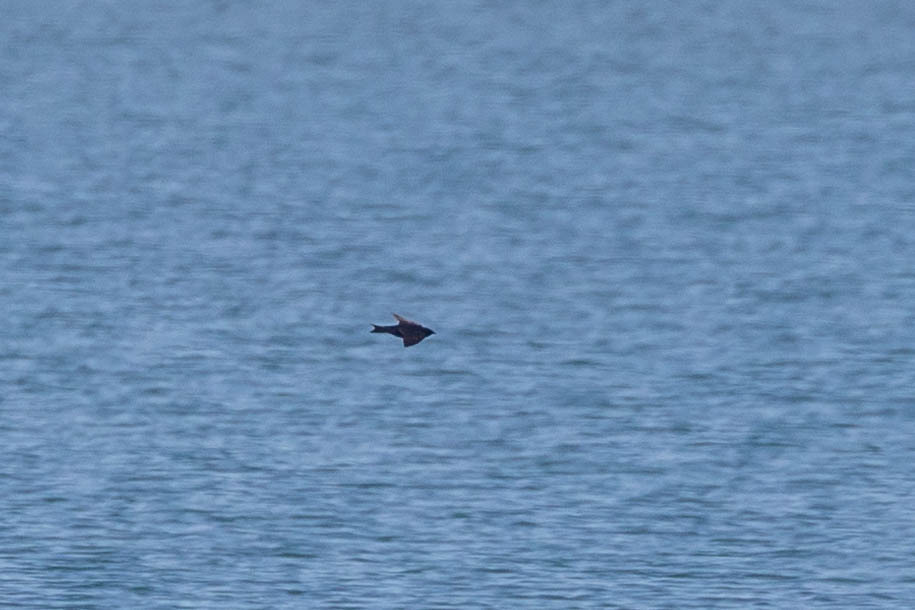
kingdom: Animalia
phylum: Chordata
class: Aves
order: Passeriformes
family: Hirundinidae
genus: Progne
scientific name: Progne subis
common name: Purple martin
